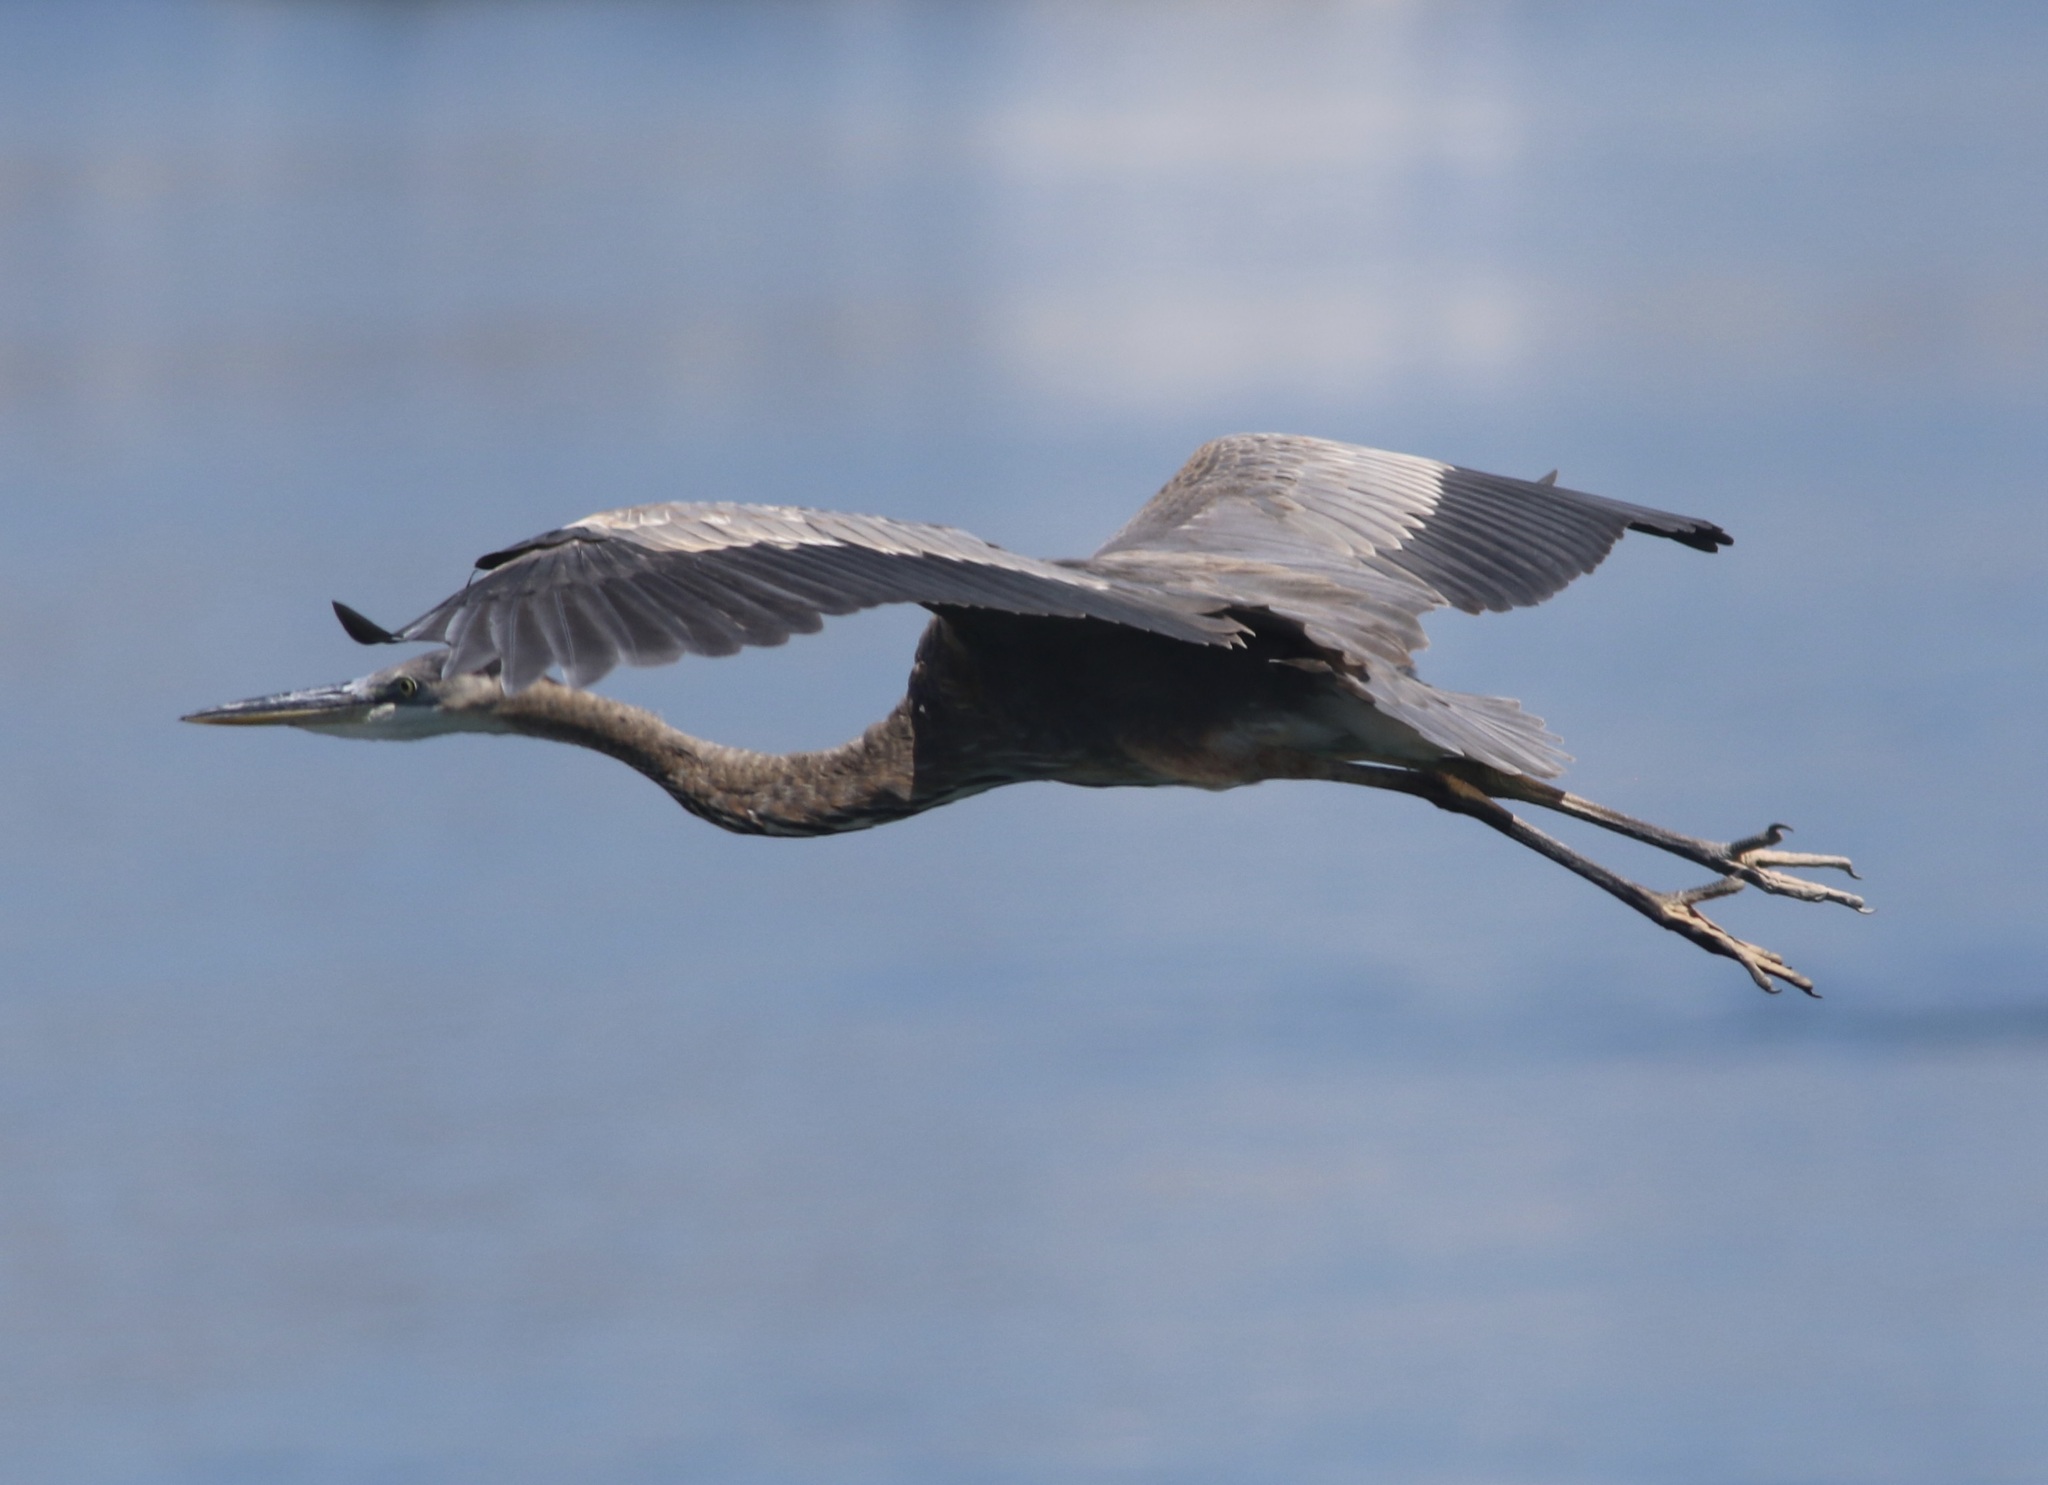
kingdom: Animalia
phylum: Chordata
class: Aves
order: Pelecaniformes
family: Ardeidae
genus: Ardea
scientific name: Ardea herodias
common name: Great blue heron
